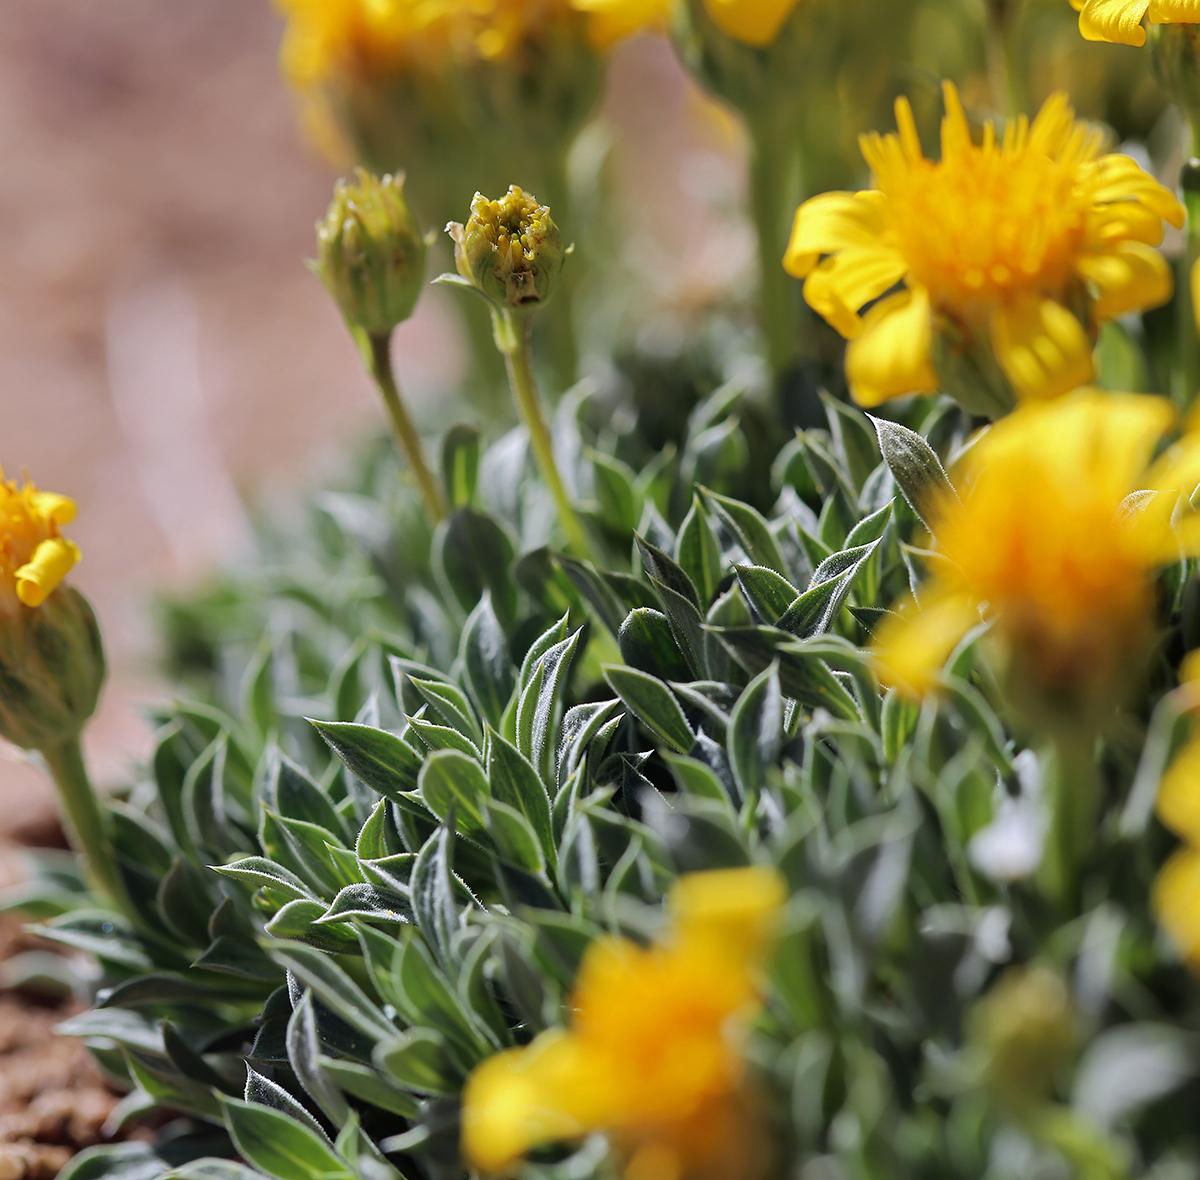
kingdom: Plantae
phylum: Tracheophyta
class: Magnoliopsida
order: Asterales
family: Asteraceae
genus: Stenotus
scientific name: Stenotus acaulis
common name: Stemless goldenweed
